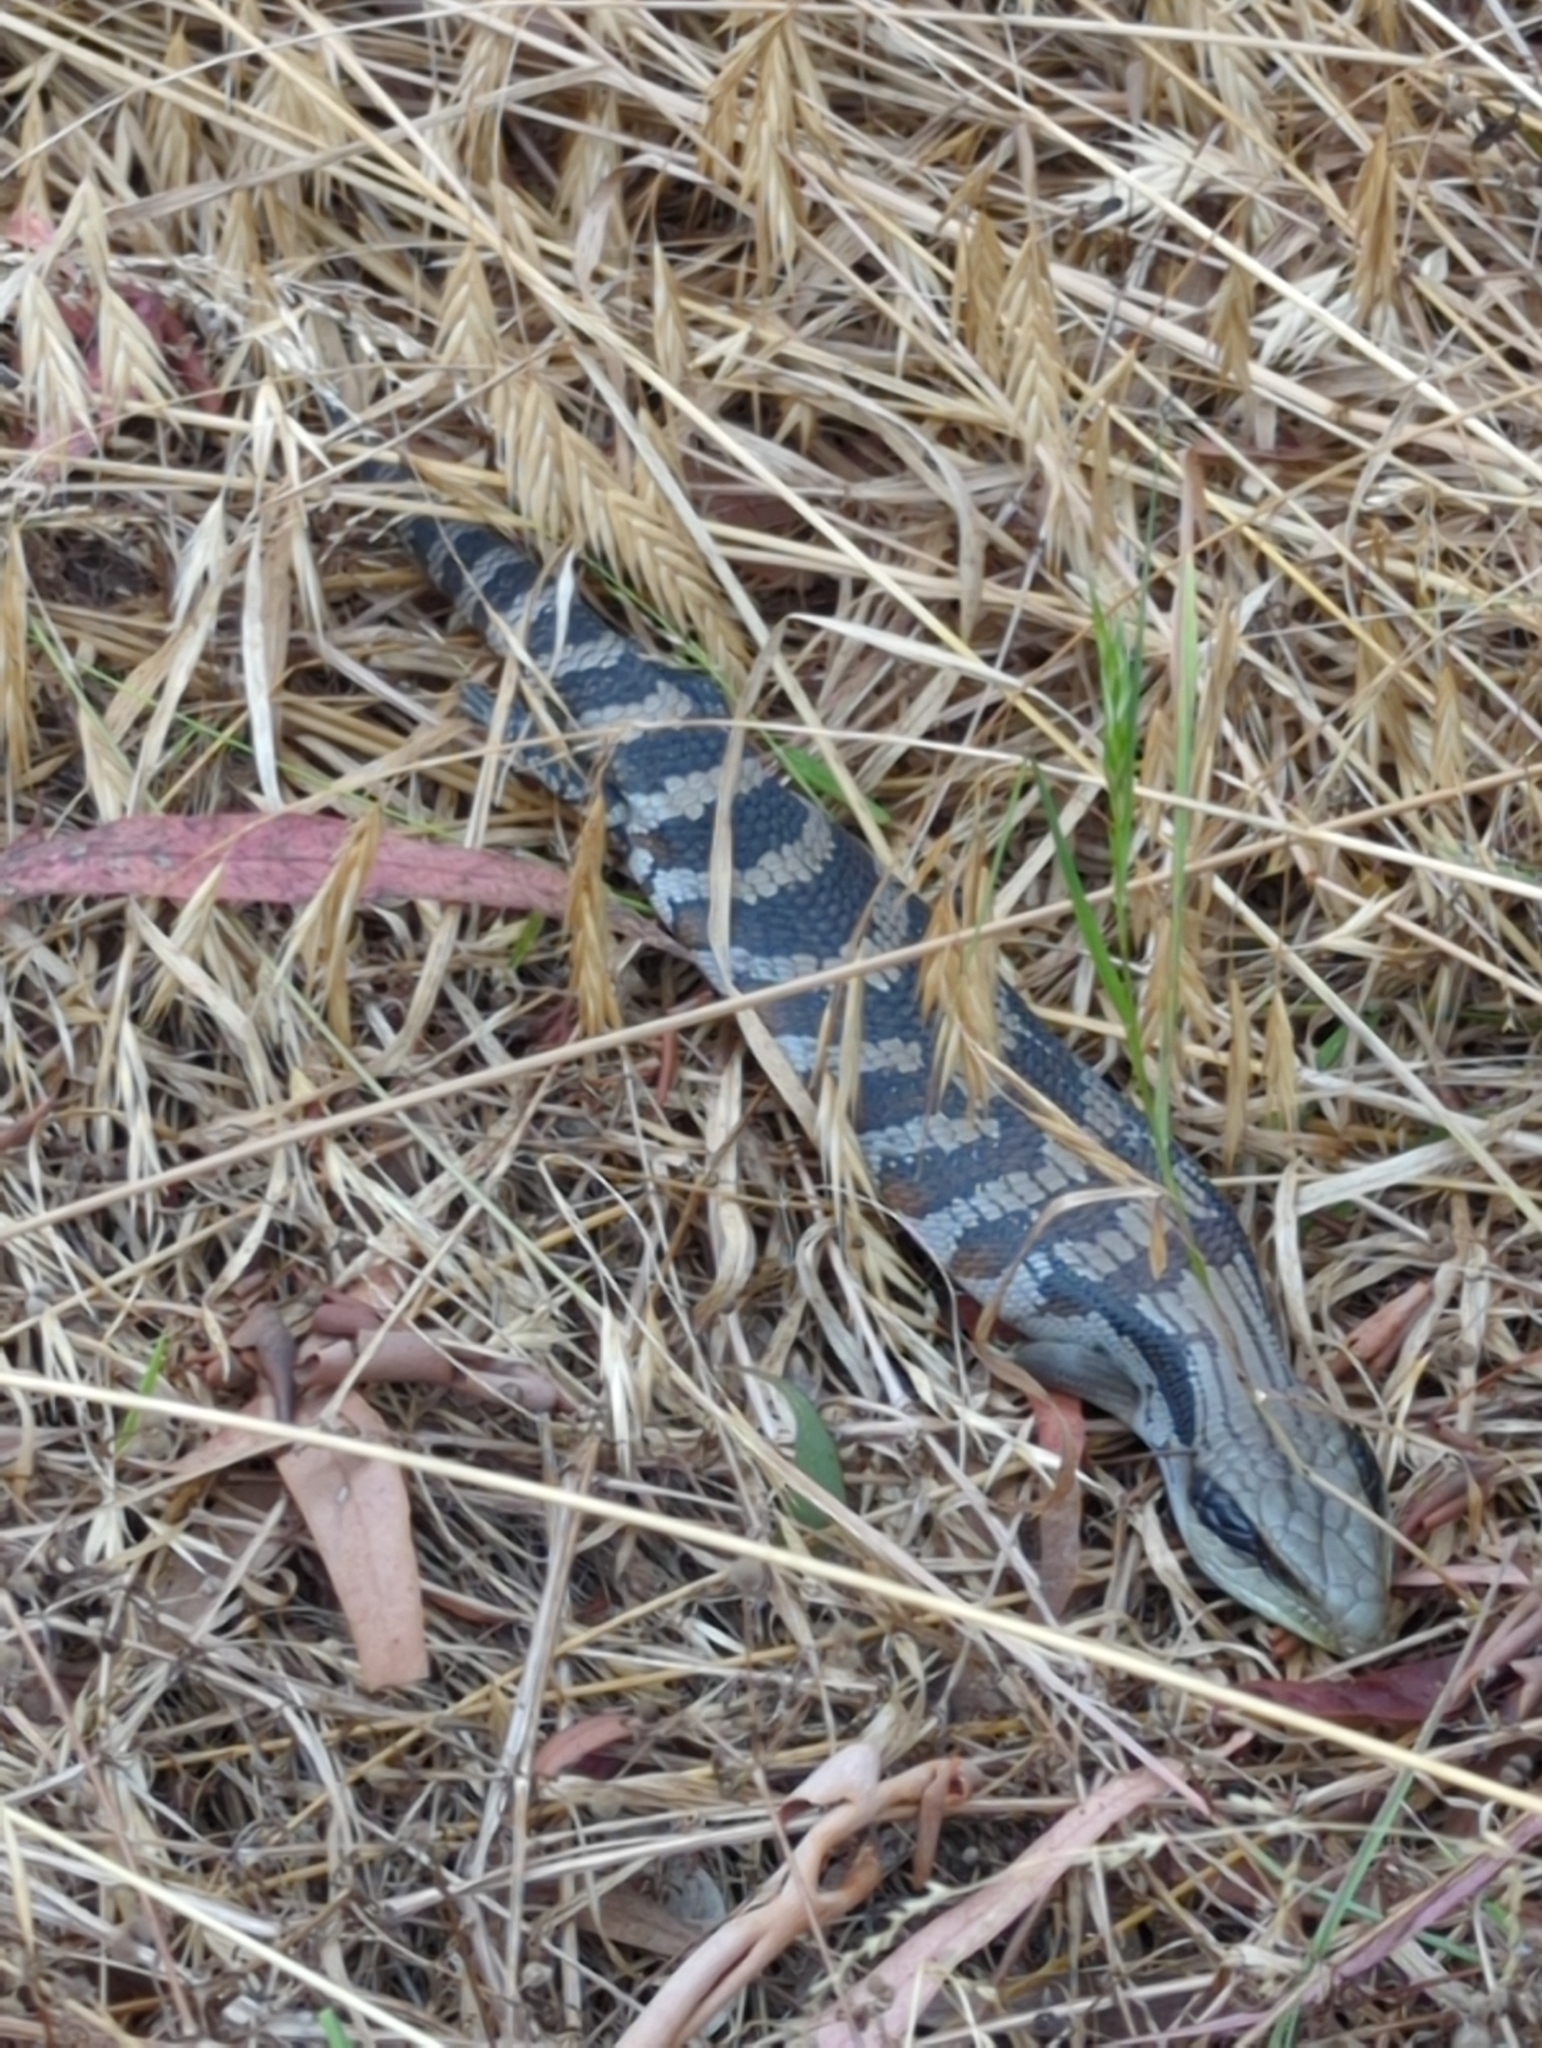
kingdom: Animalia
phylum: Chordata
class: Squamata
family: Scincidae
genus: Tiliqua
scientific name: Tiliqua scincoides
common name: Common bluetongue
